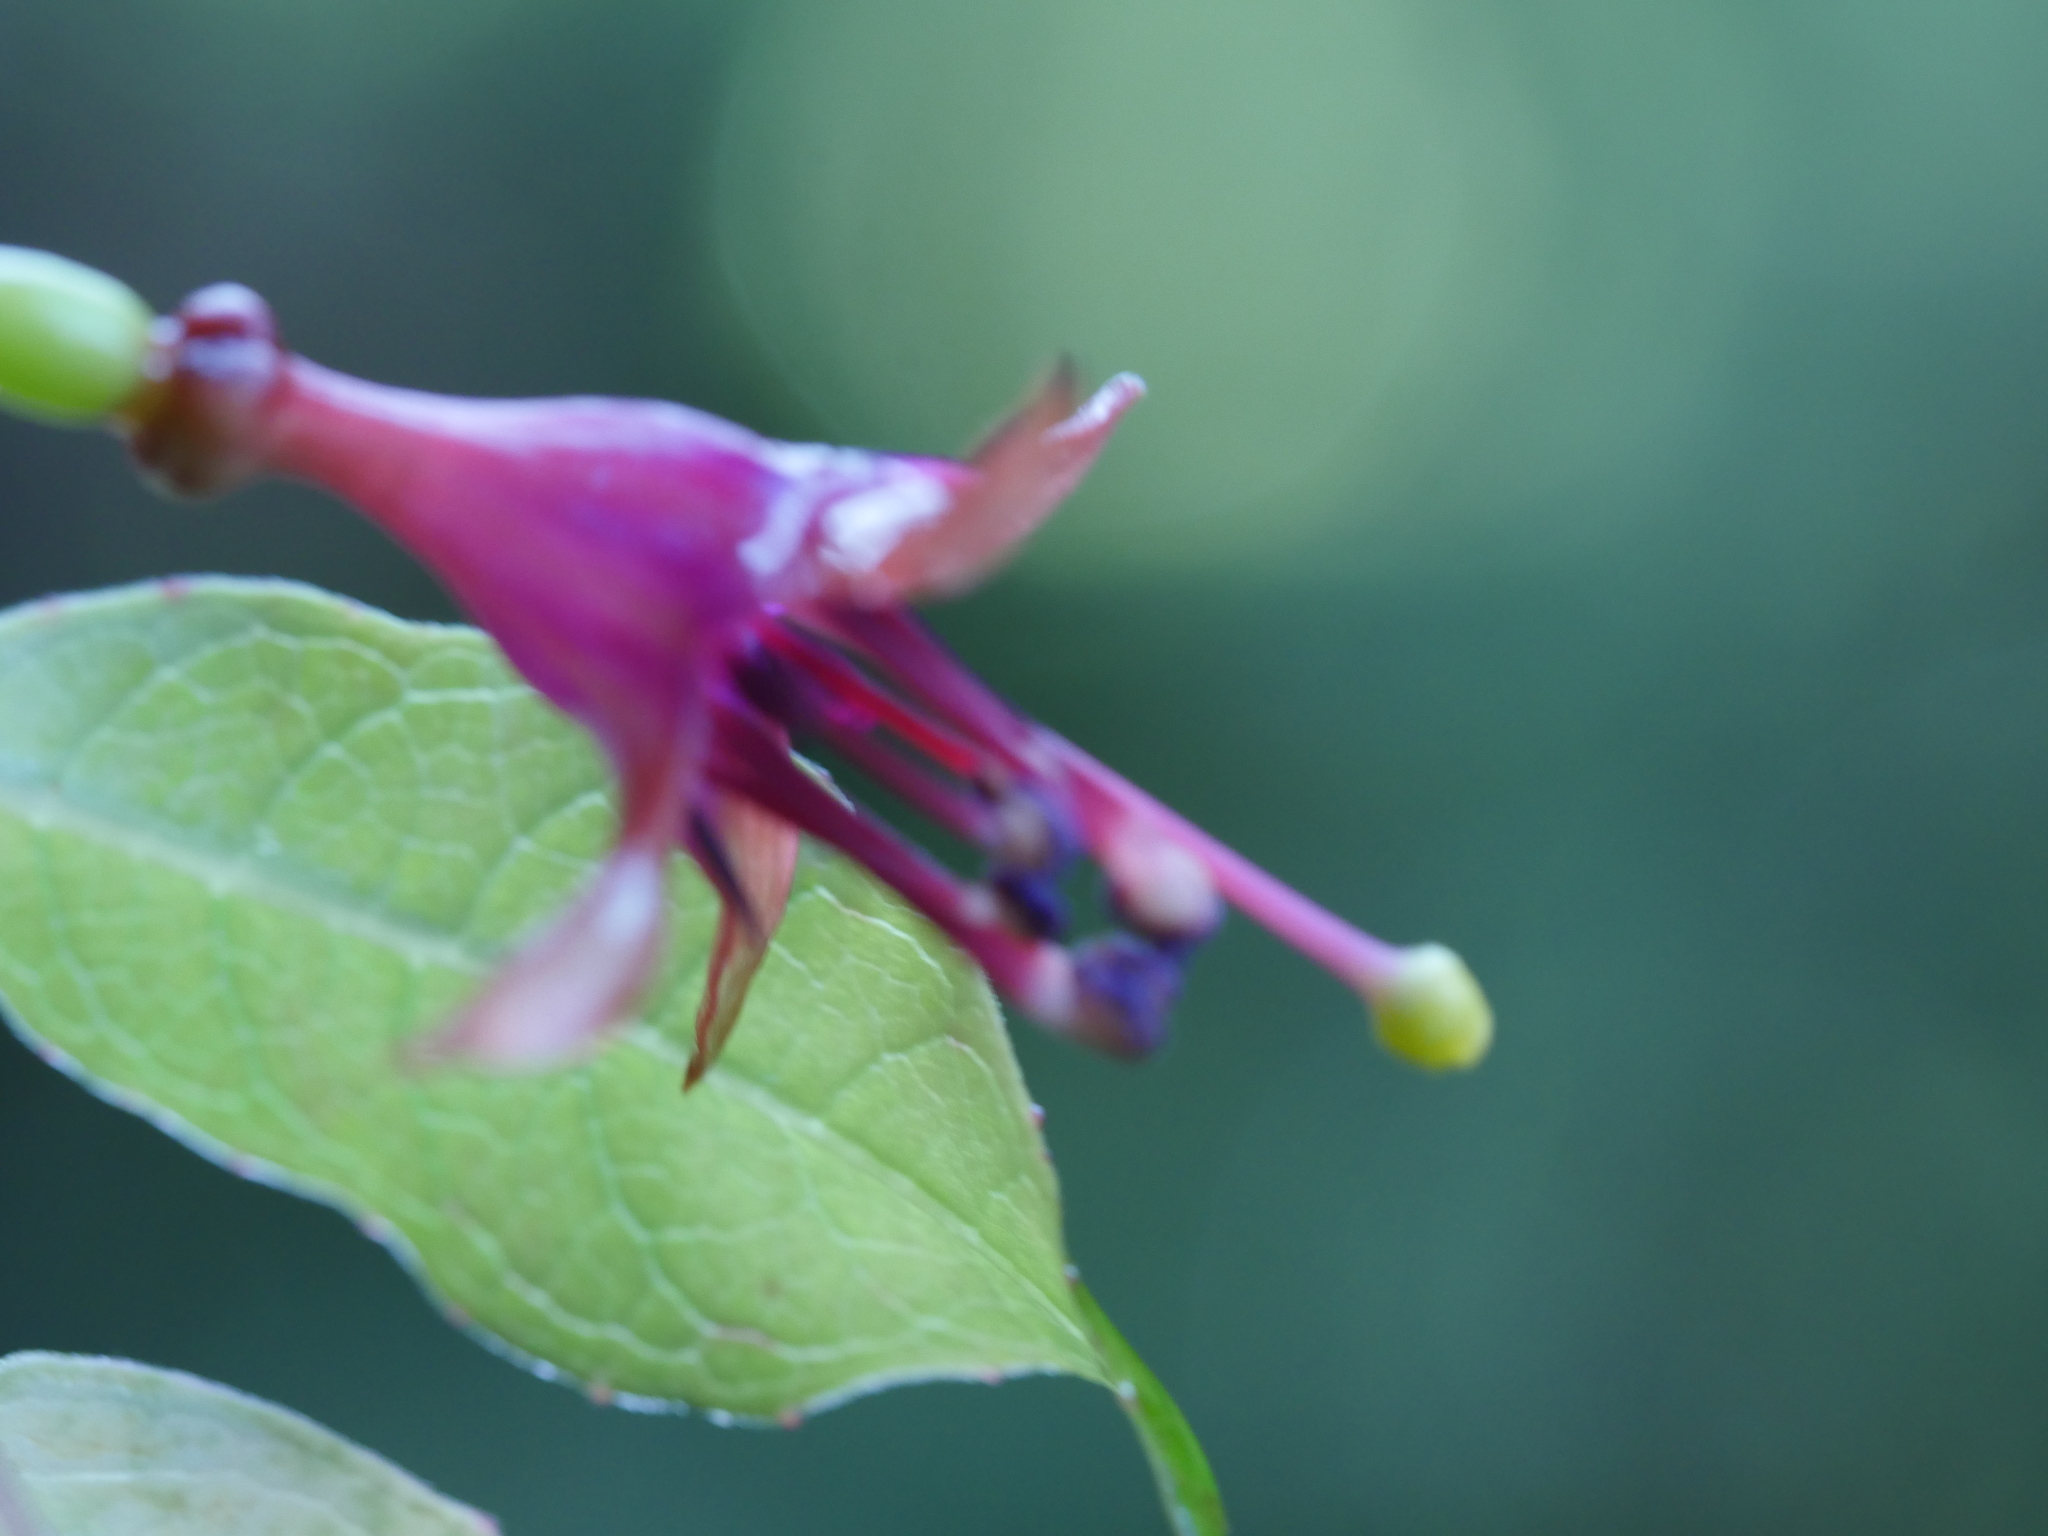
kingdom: Plantae
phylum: Tracheophyta
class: Magnoliopsida
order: Myrtales
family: Onagraceae
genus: Fuchsia
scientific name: Fuchsia excorticata
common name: Tree fuchsia
